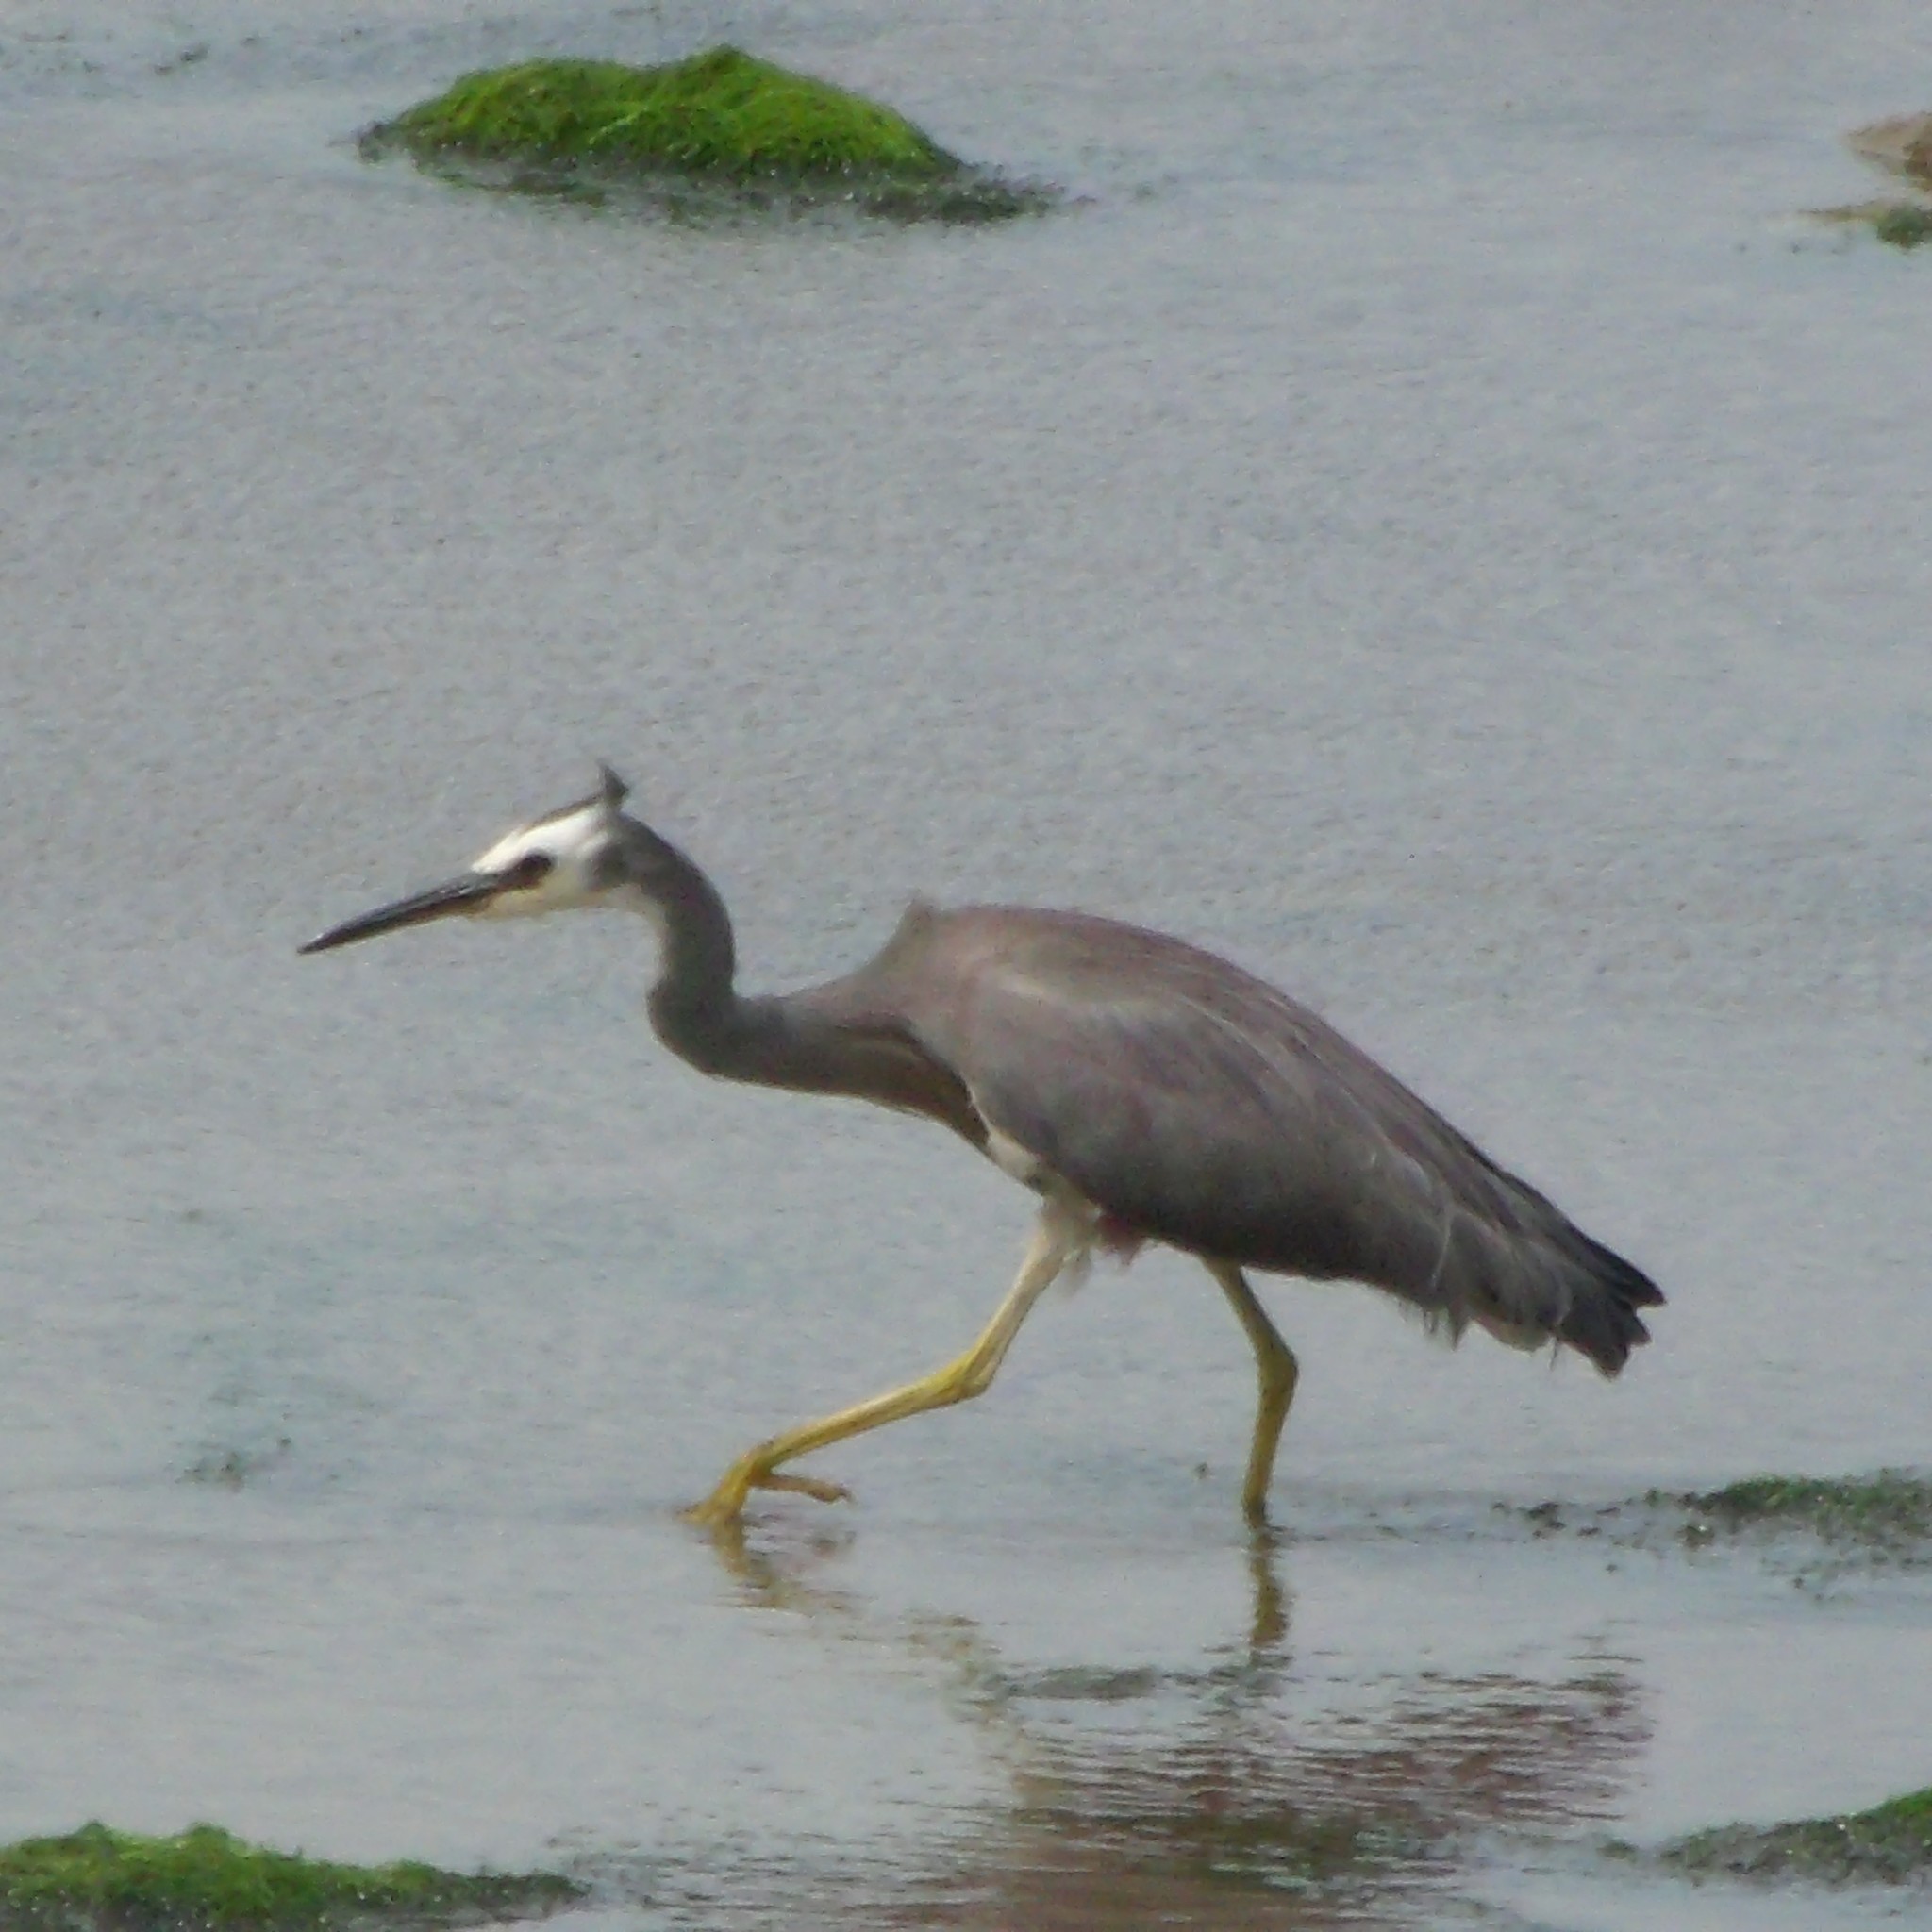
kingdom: Animalia
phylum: Chordata
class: Aves
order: Pelecaniformes
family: Ardeidae
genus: Egretta
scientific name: Egretta novaehollandiae
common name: White-faced heron
